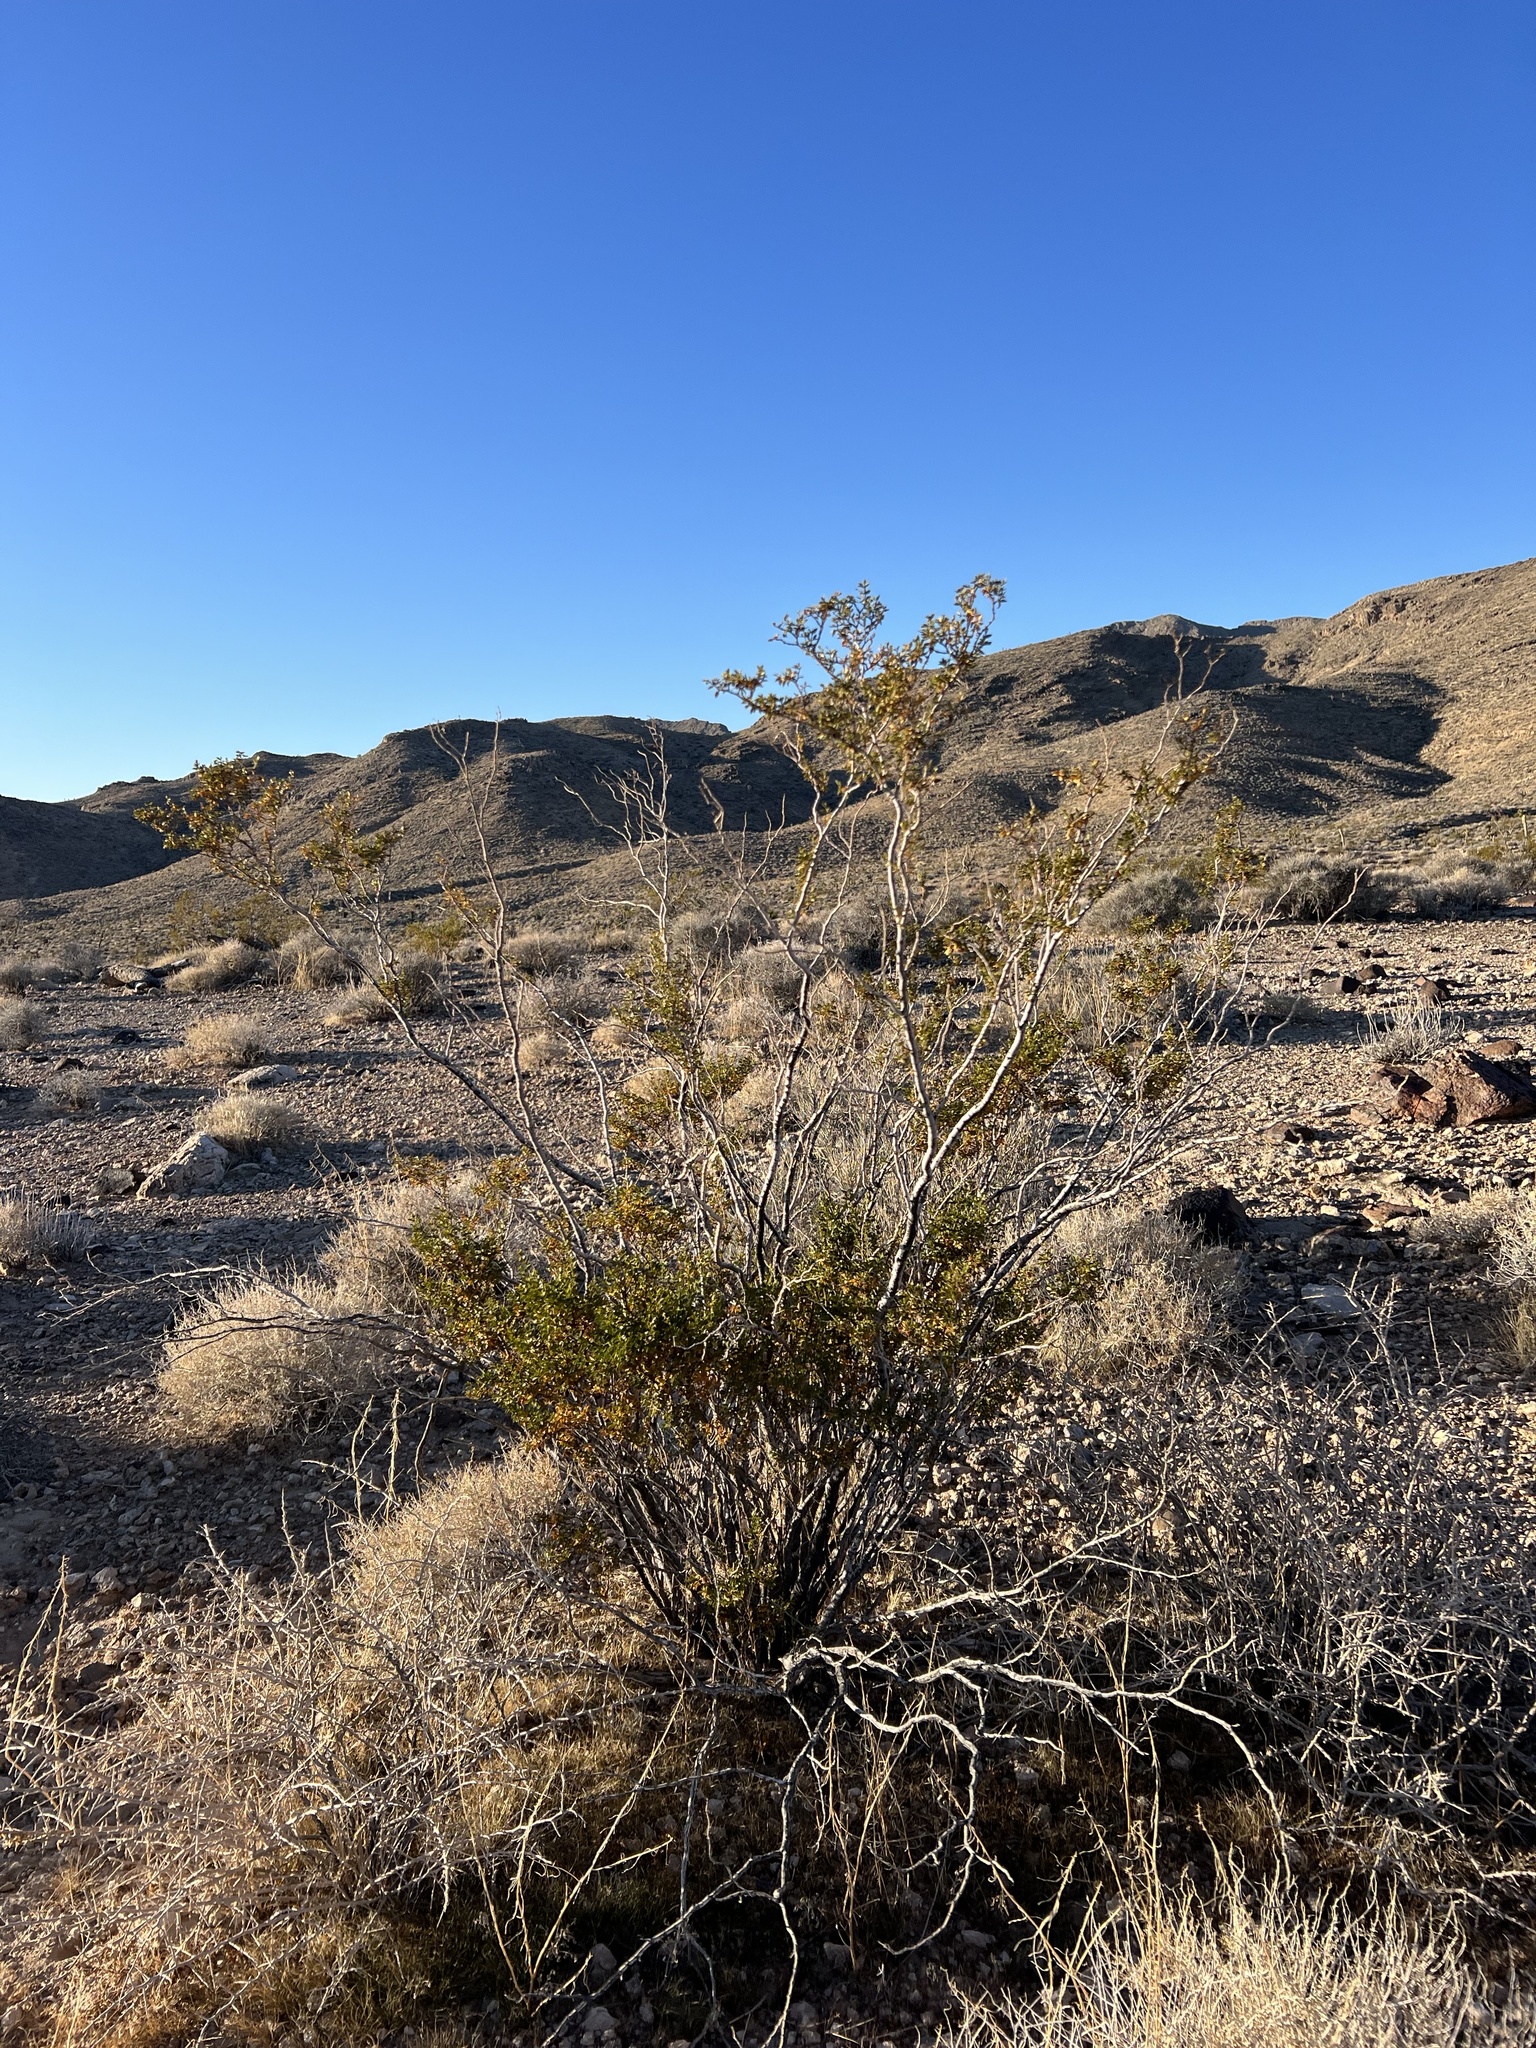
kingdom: Plantae
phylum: Tracheophyta
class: Magnoliopsida
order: Zygophyllales
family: Zygophyllaceae
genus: Larrea
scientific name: Larrea tridentata
